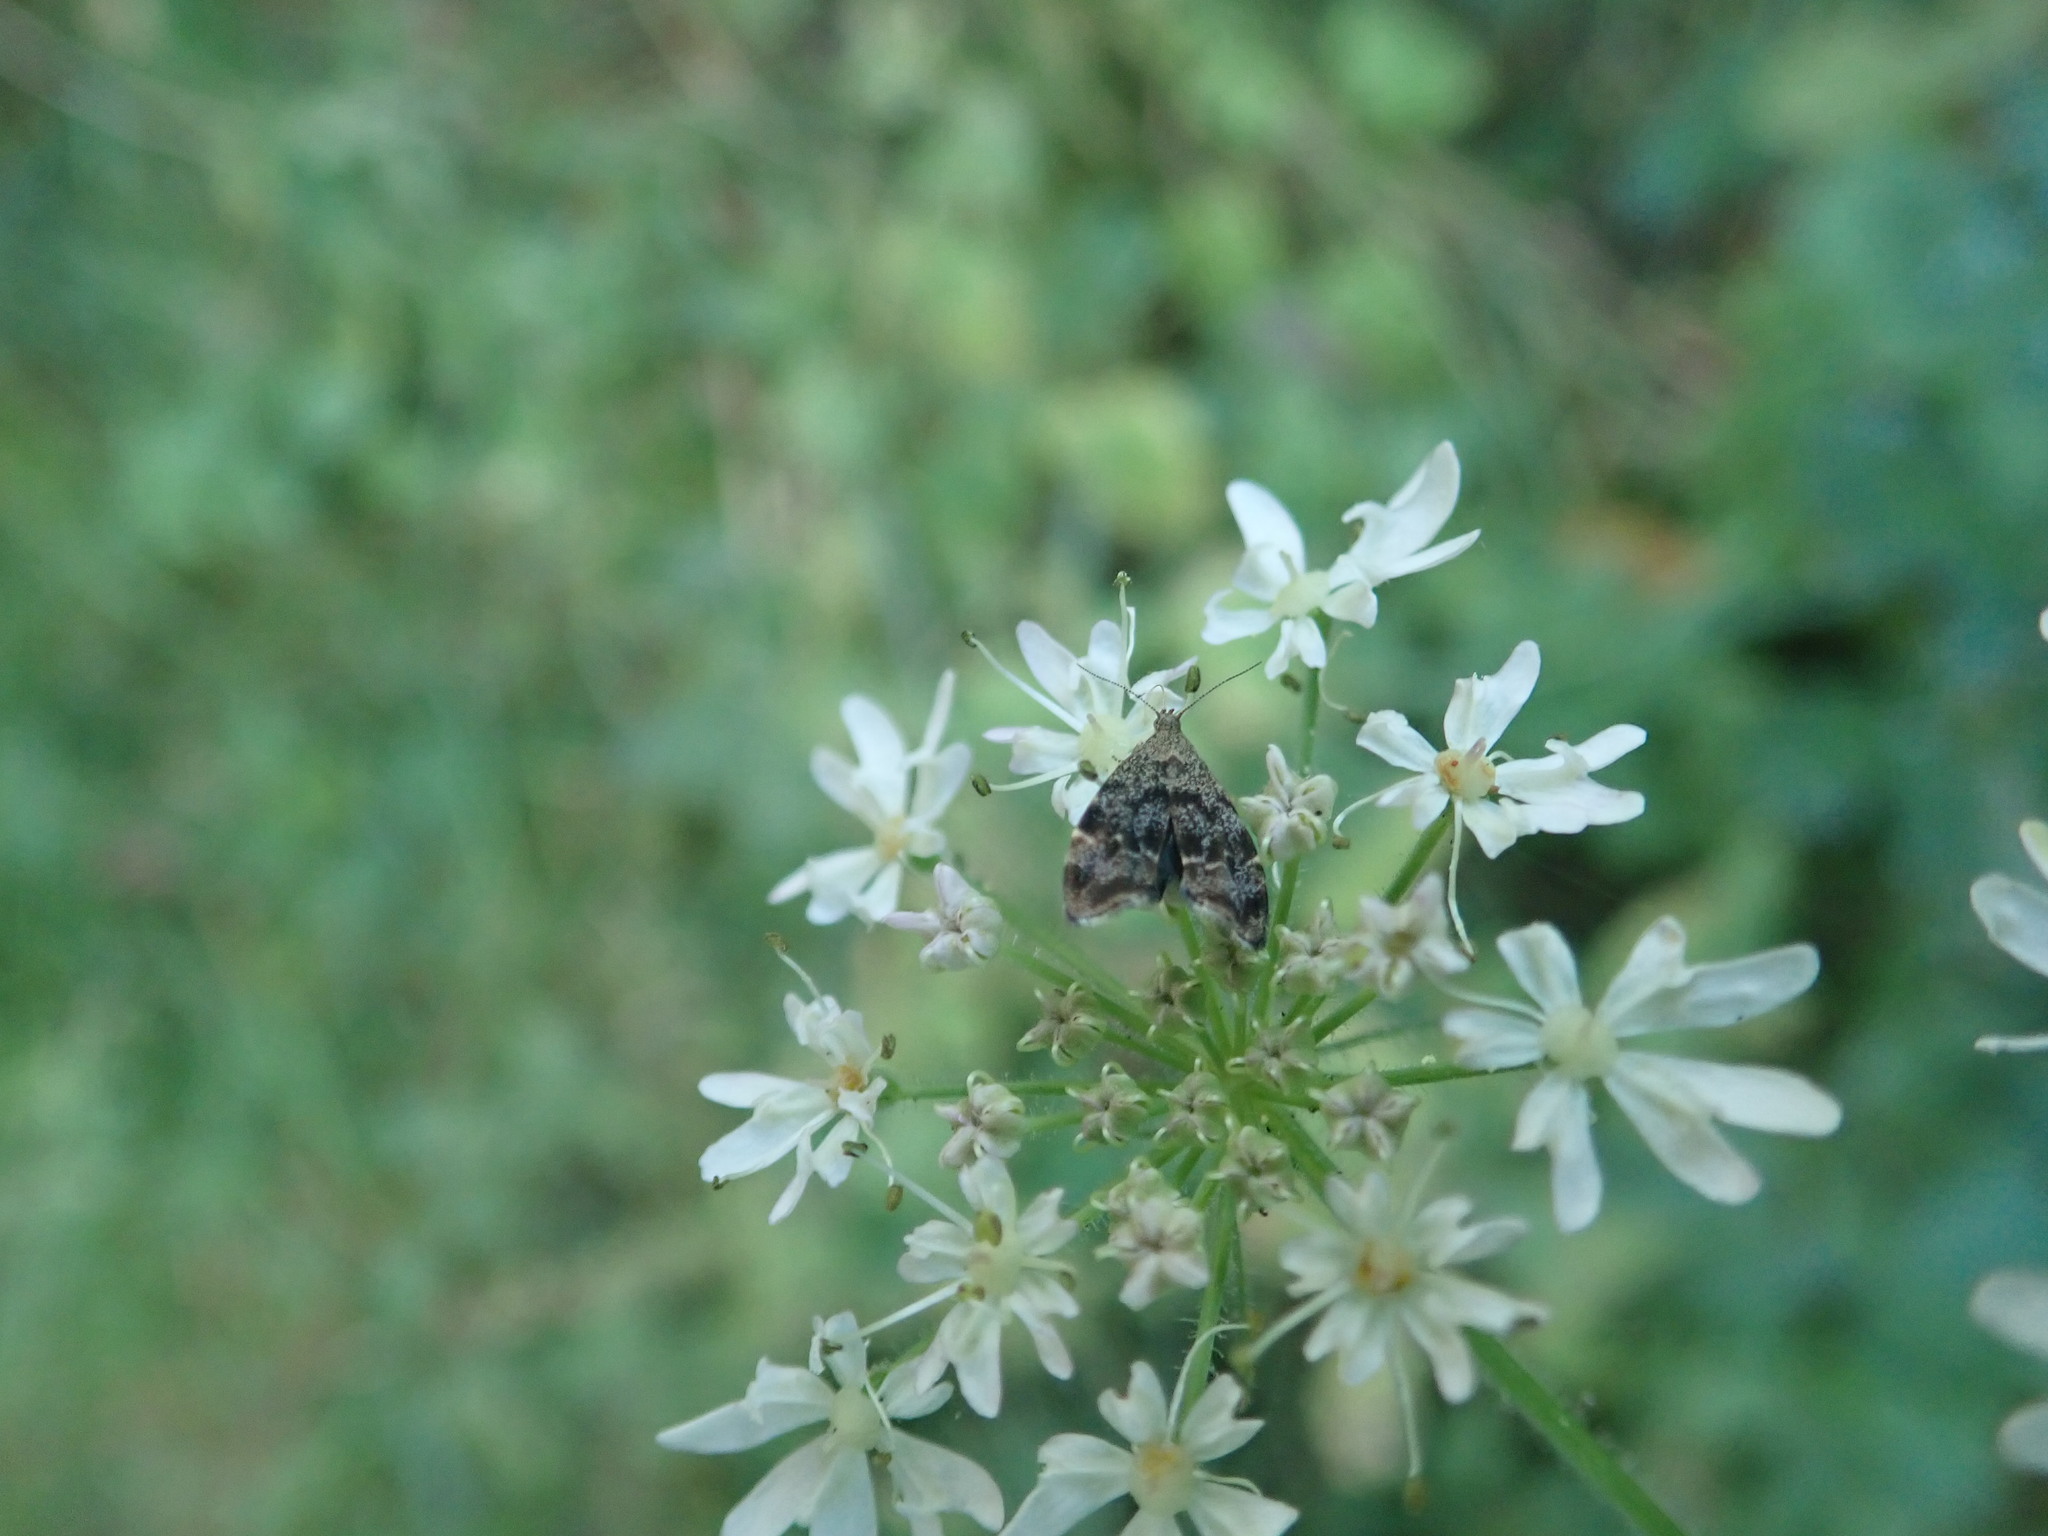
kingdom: Animalia
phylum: Arthropoda
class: Insecta
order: Lepidoptera
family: Choreutidae
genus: Anthophila
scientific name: Anthophila fabriciana
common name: Nettle-tap
